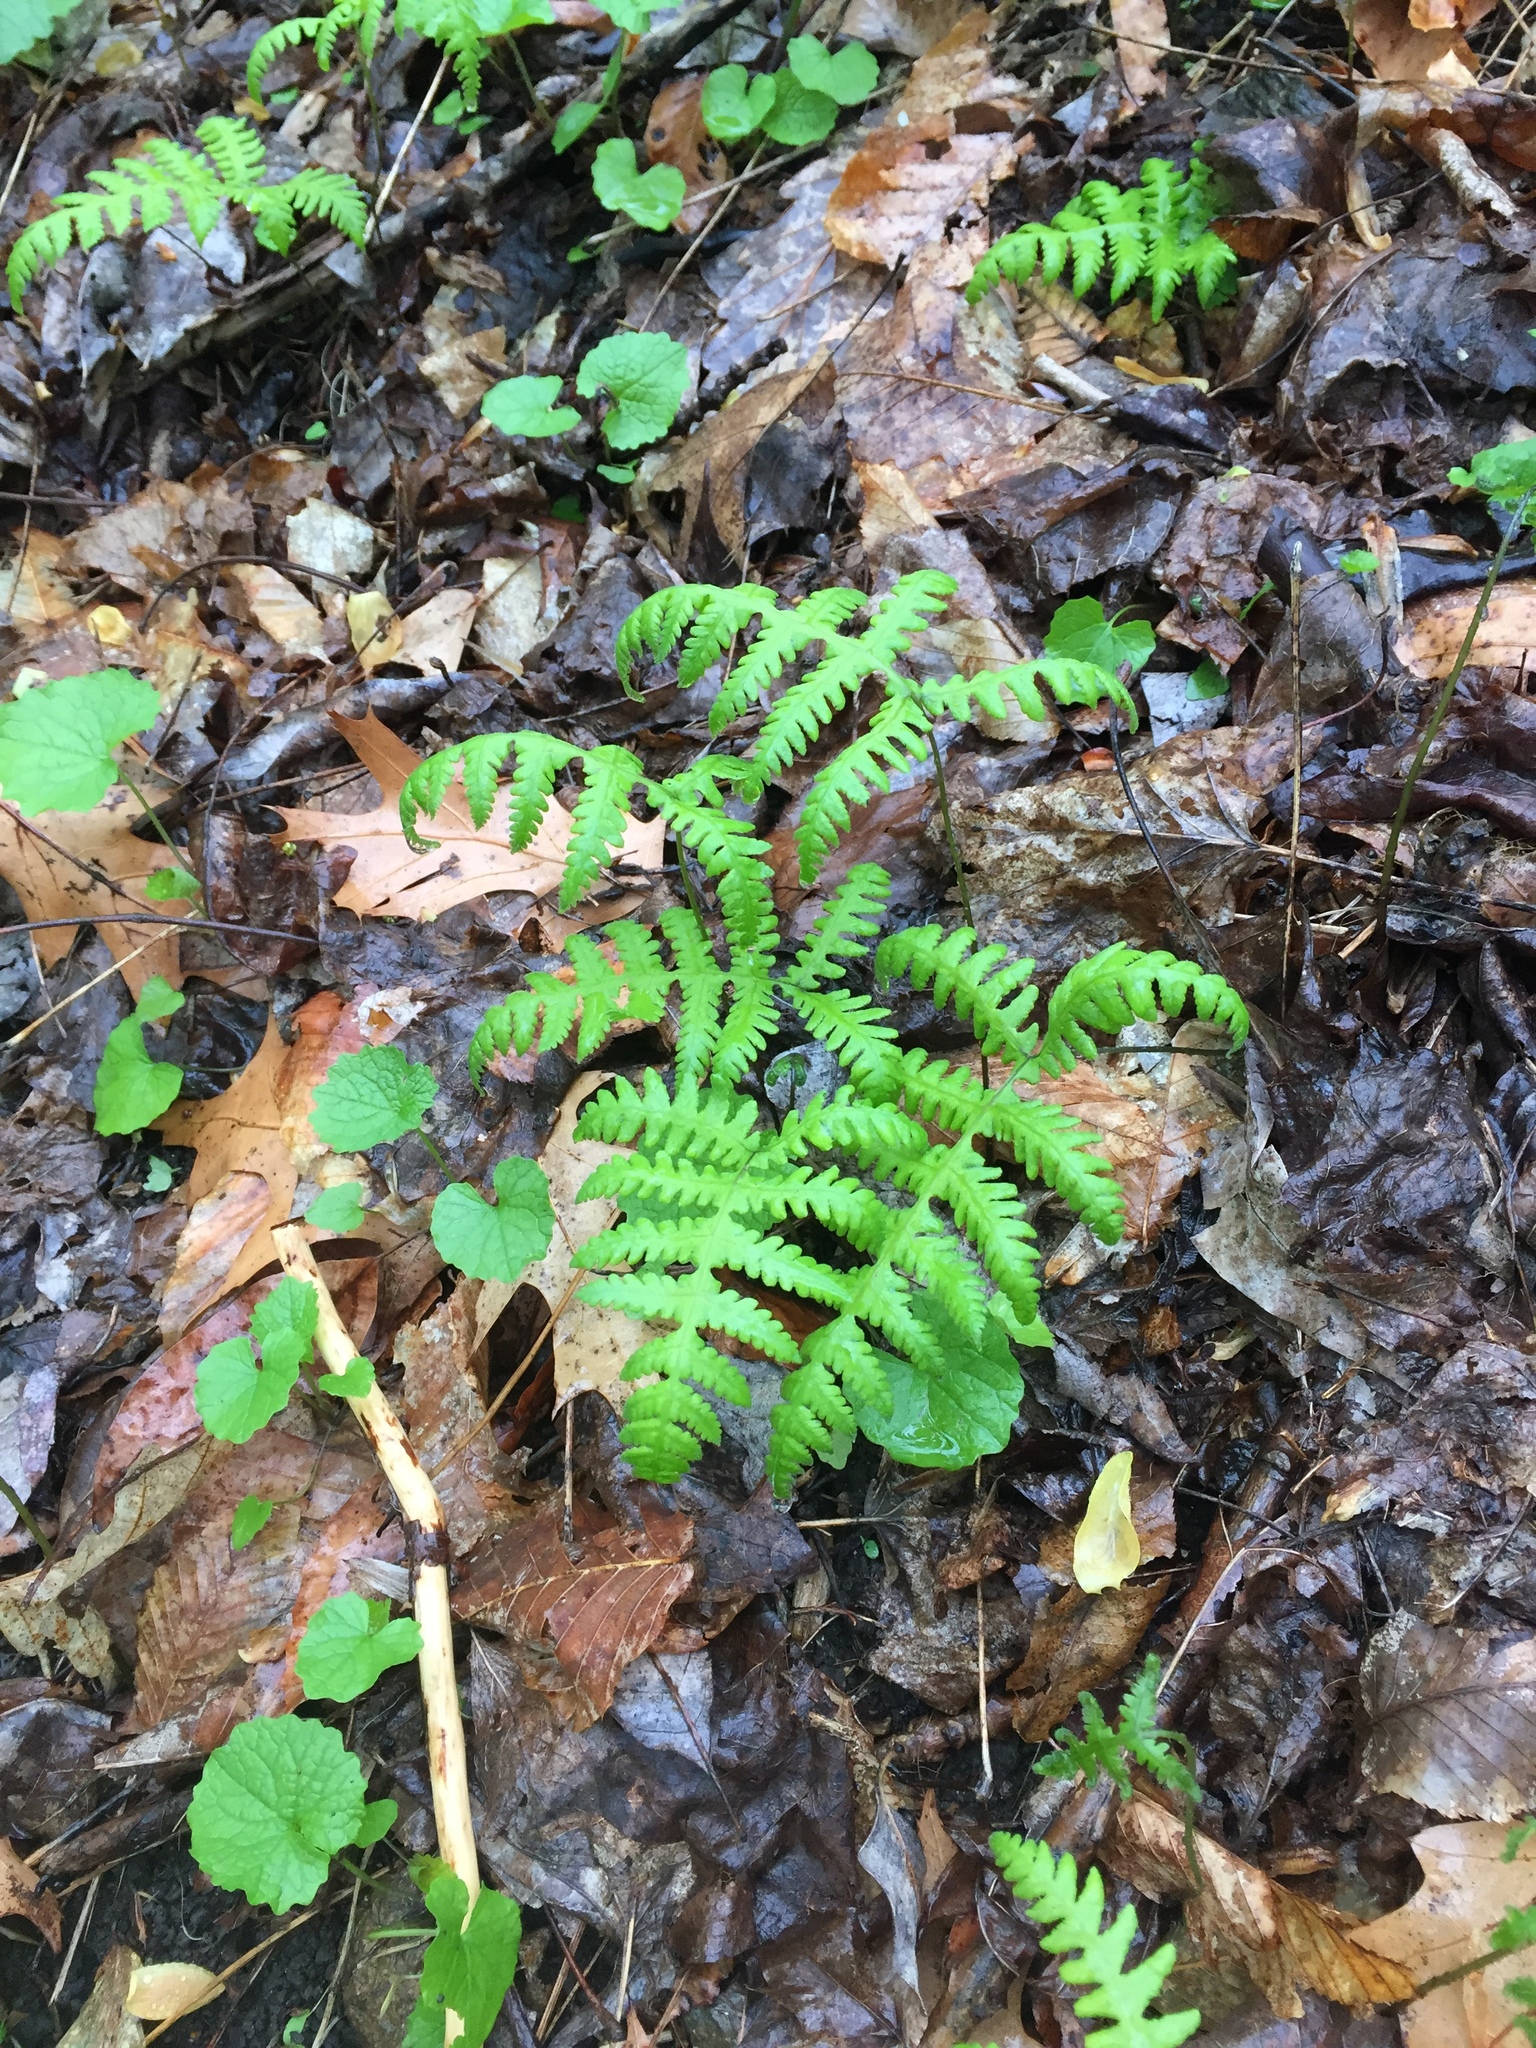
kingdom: Plantae
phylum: Tracheophyta
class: Polypodiopsida
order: Polypodiales
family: Thelypteridaceae
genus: Phegopteris
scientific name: Phegopteris hexagonoptera
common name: Broad beech fern
